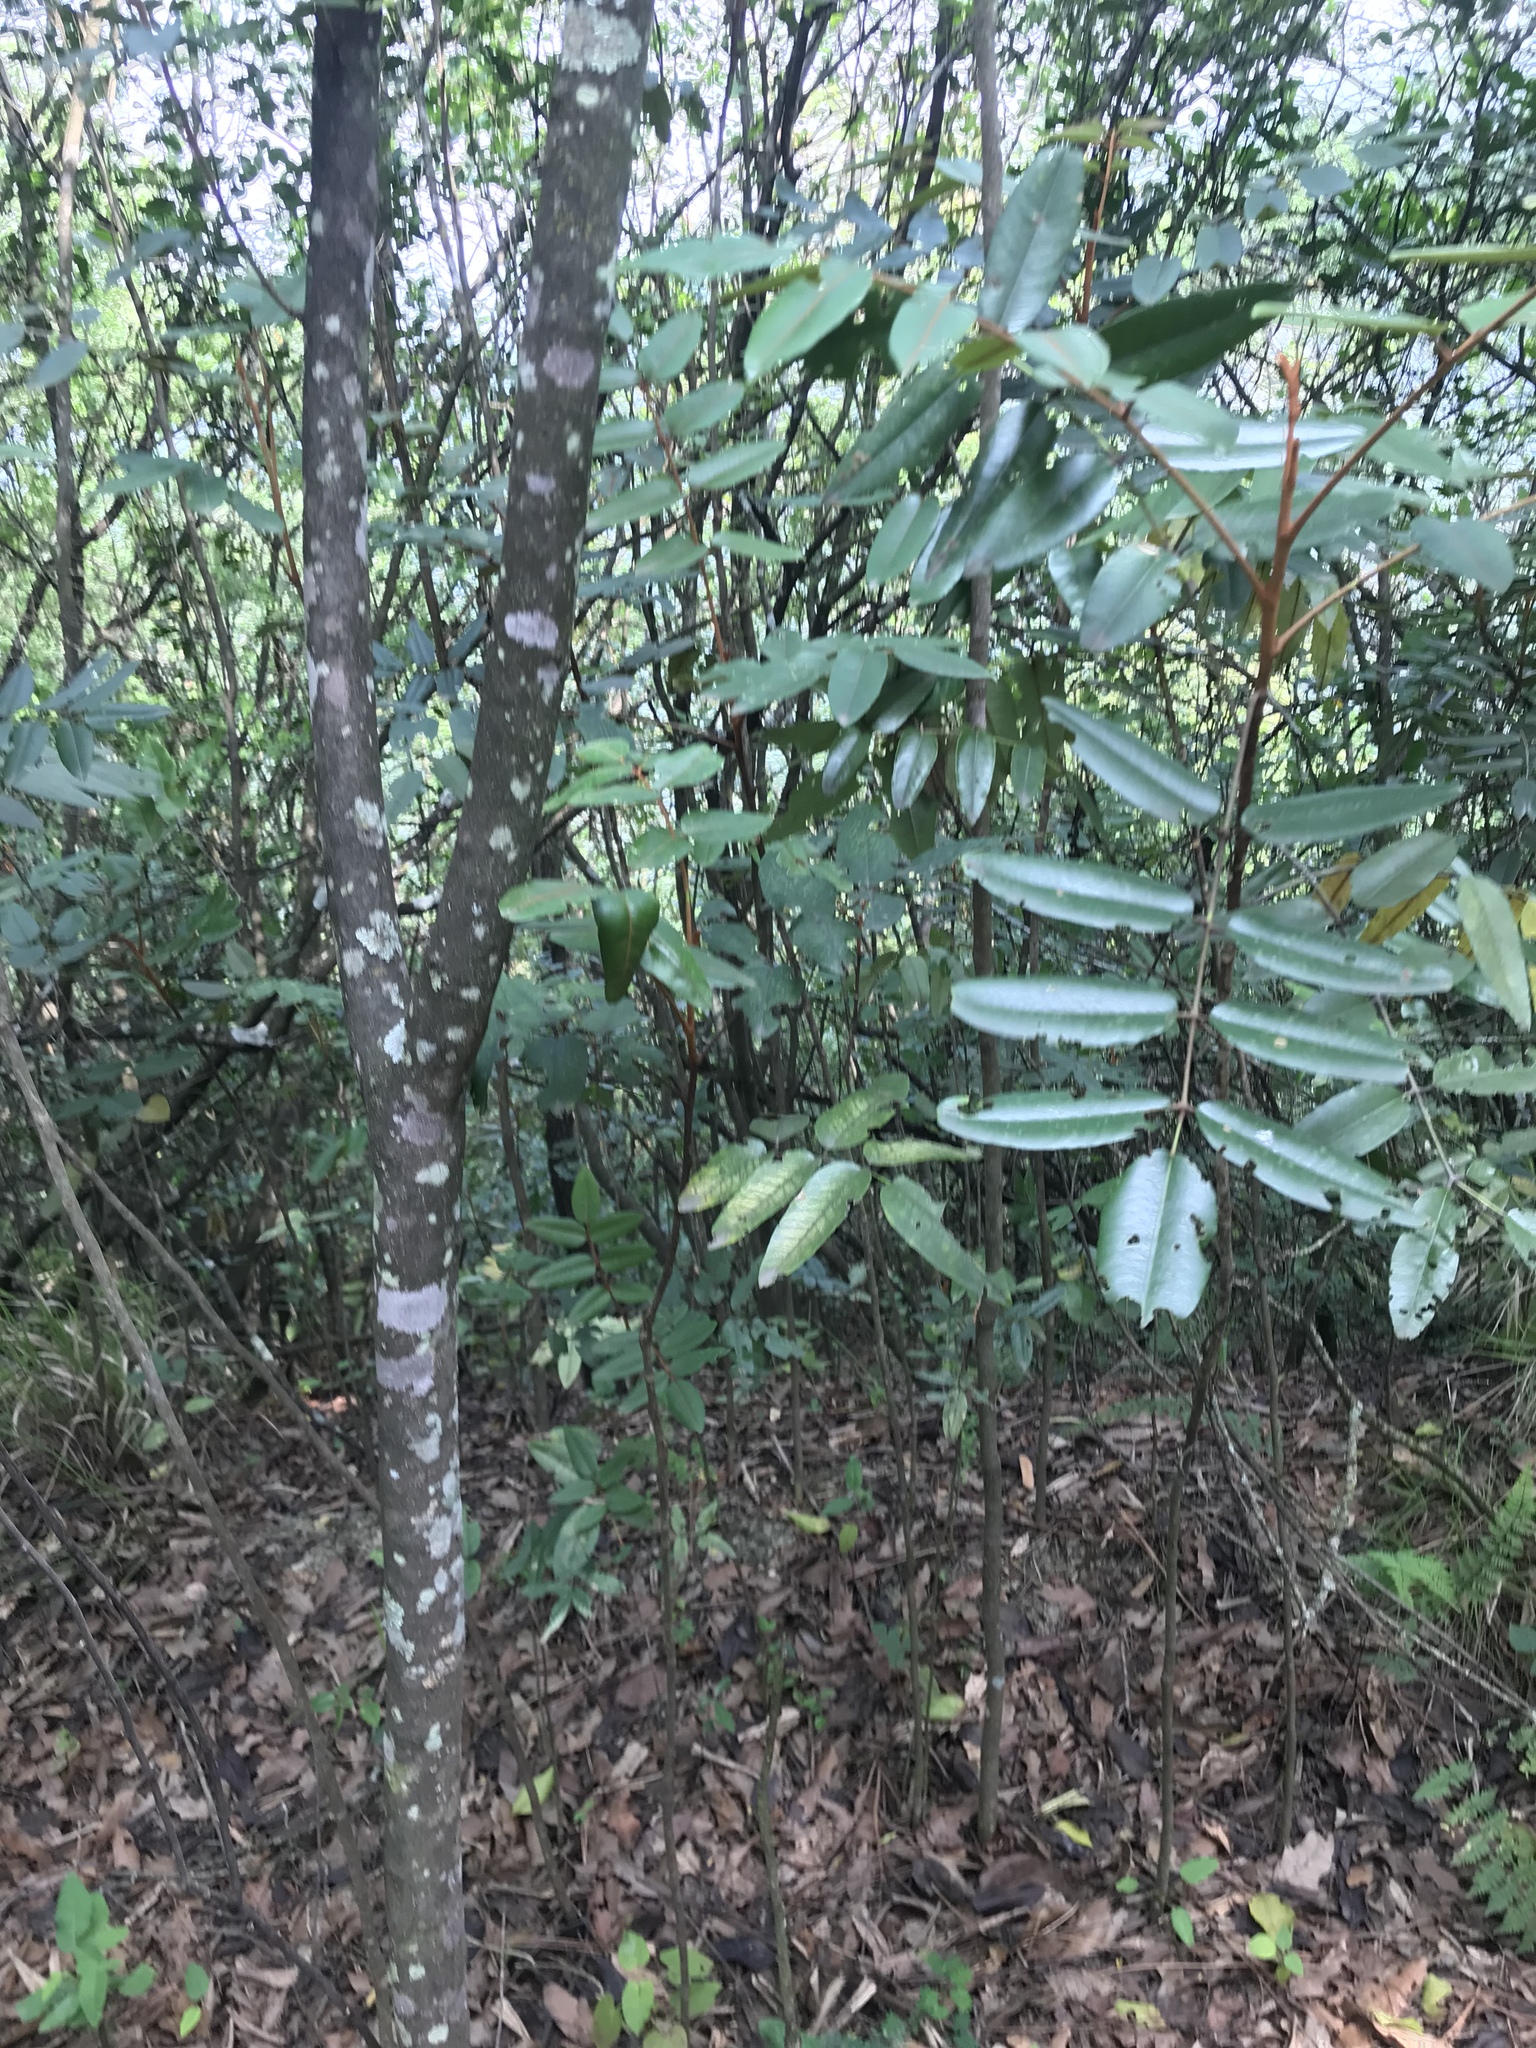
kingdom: Plantae
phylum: Tracheophyta
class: Magnoliopsida
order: Sapindales
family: Rutaceae
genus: Decatropis
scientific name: Decatropis bicolor
